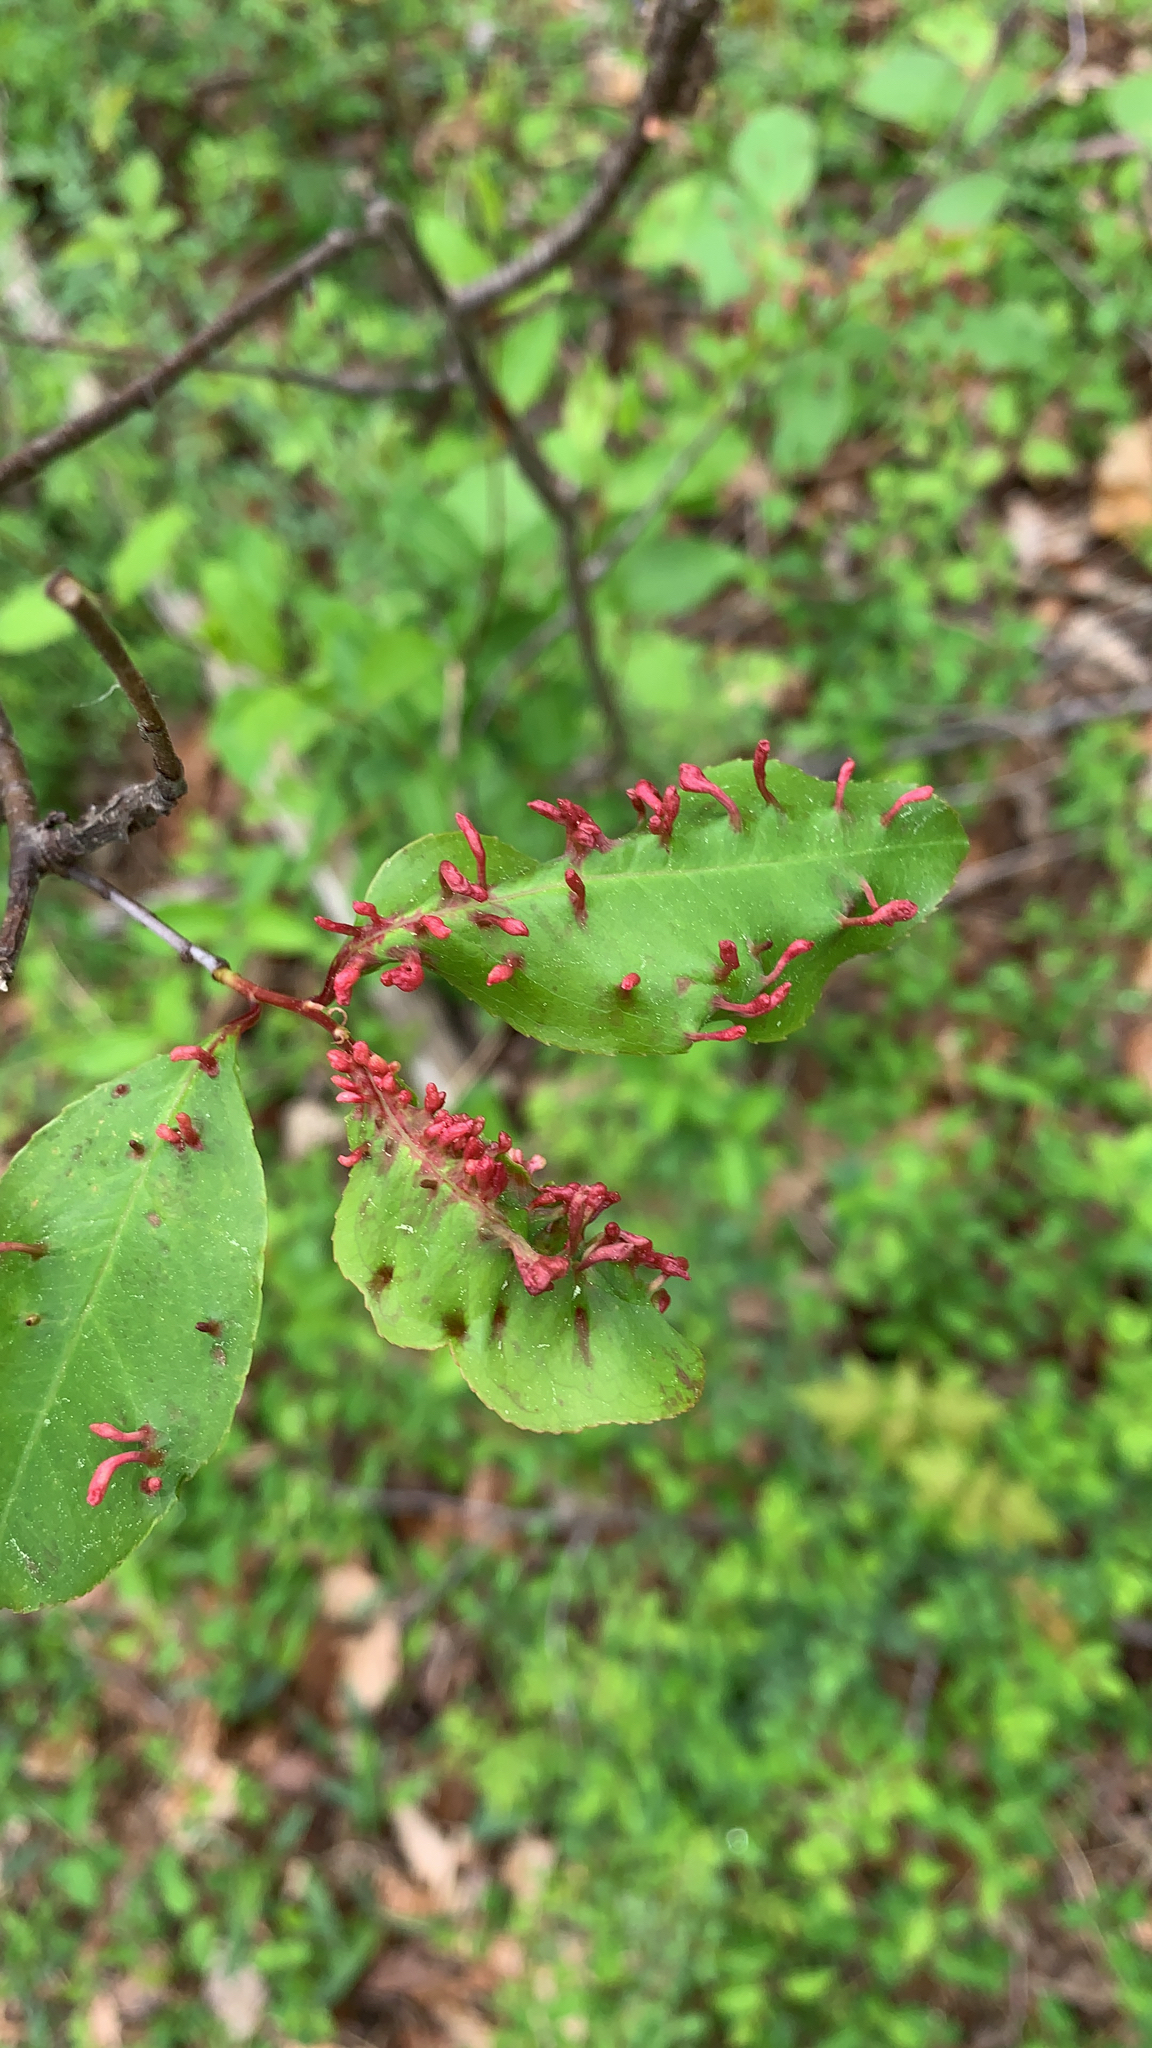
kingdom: Animalia
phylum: Arthropoda
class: Arachnida
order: Trombidiformes
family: Eriophyidae
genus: Eriophyes
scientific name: Eriophyes
